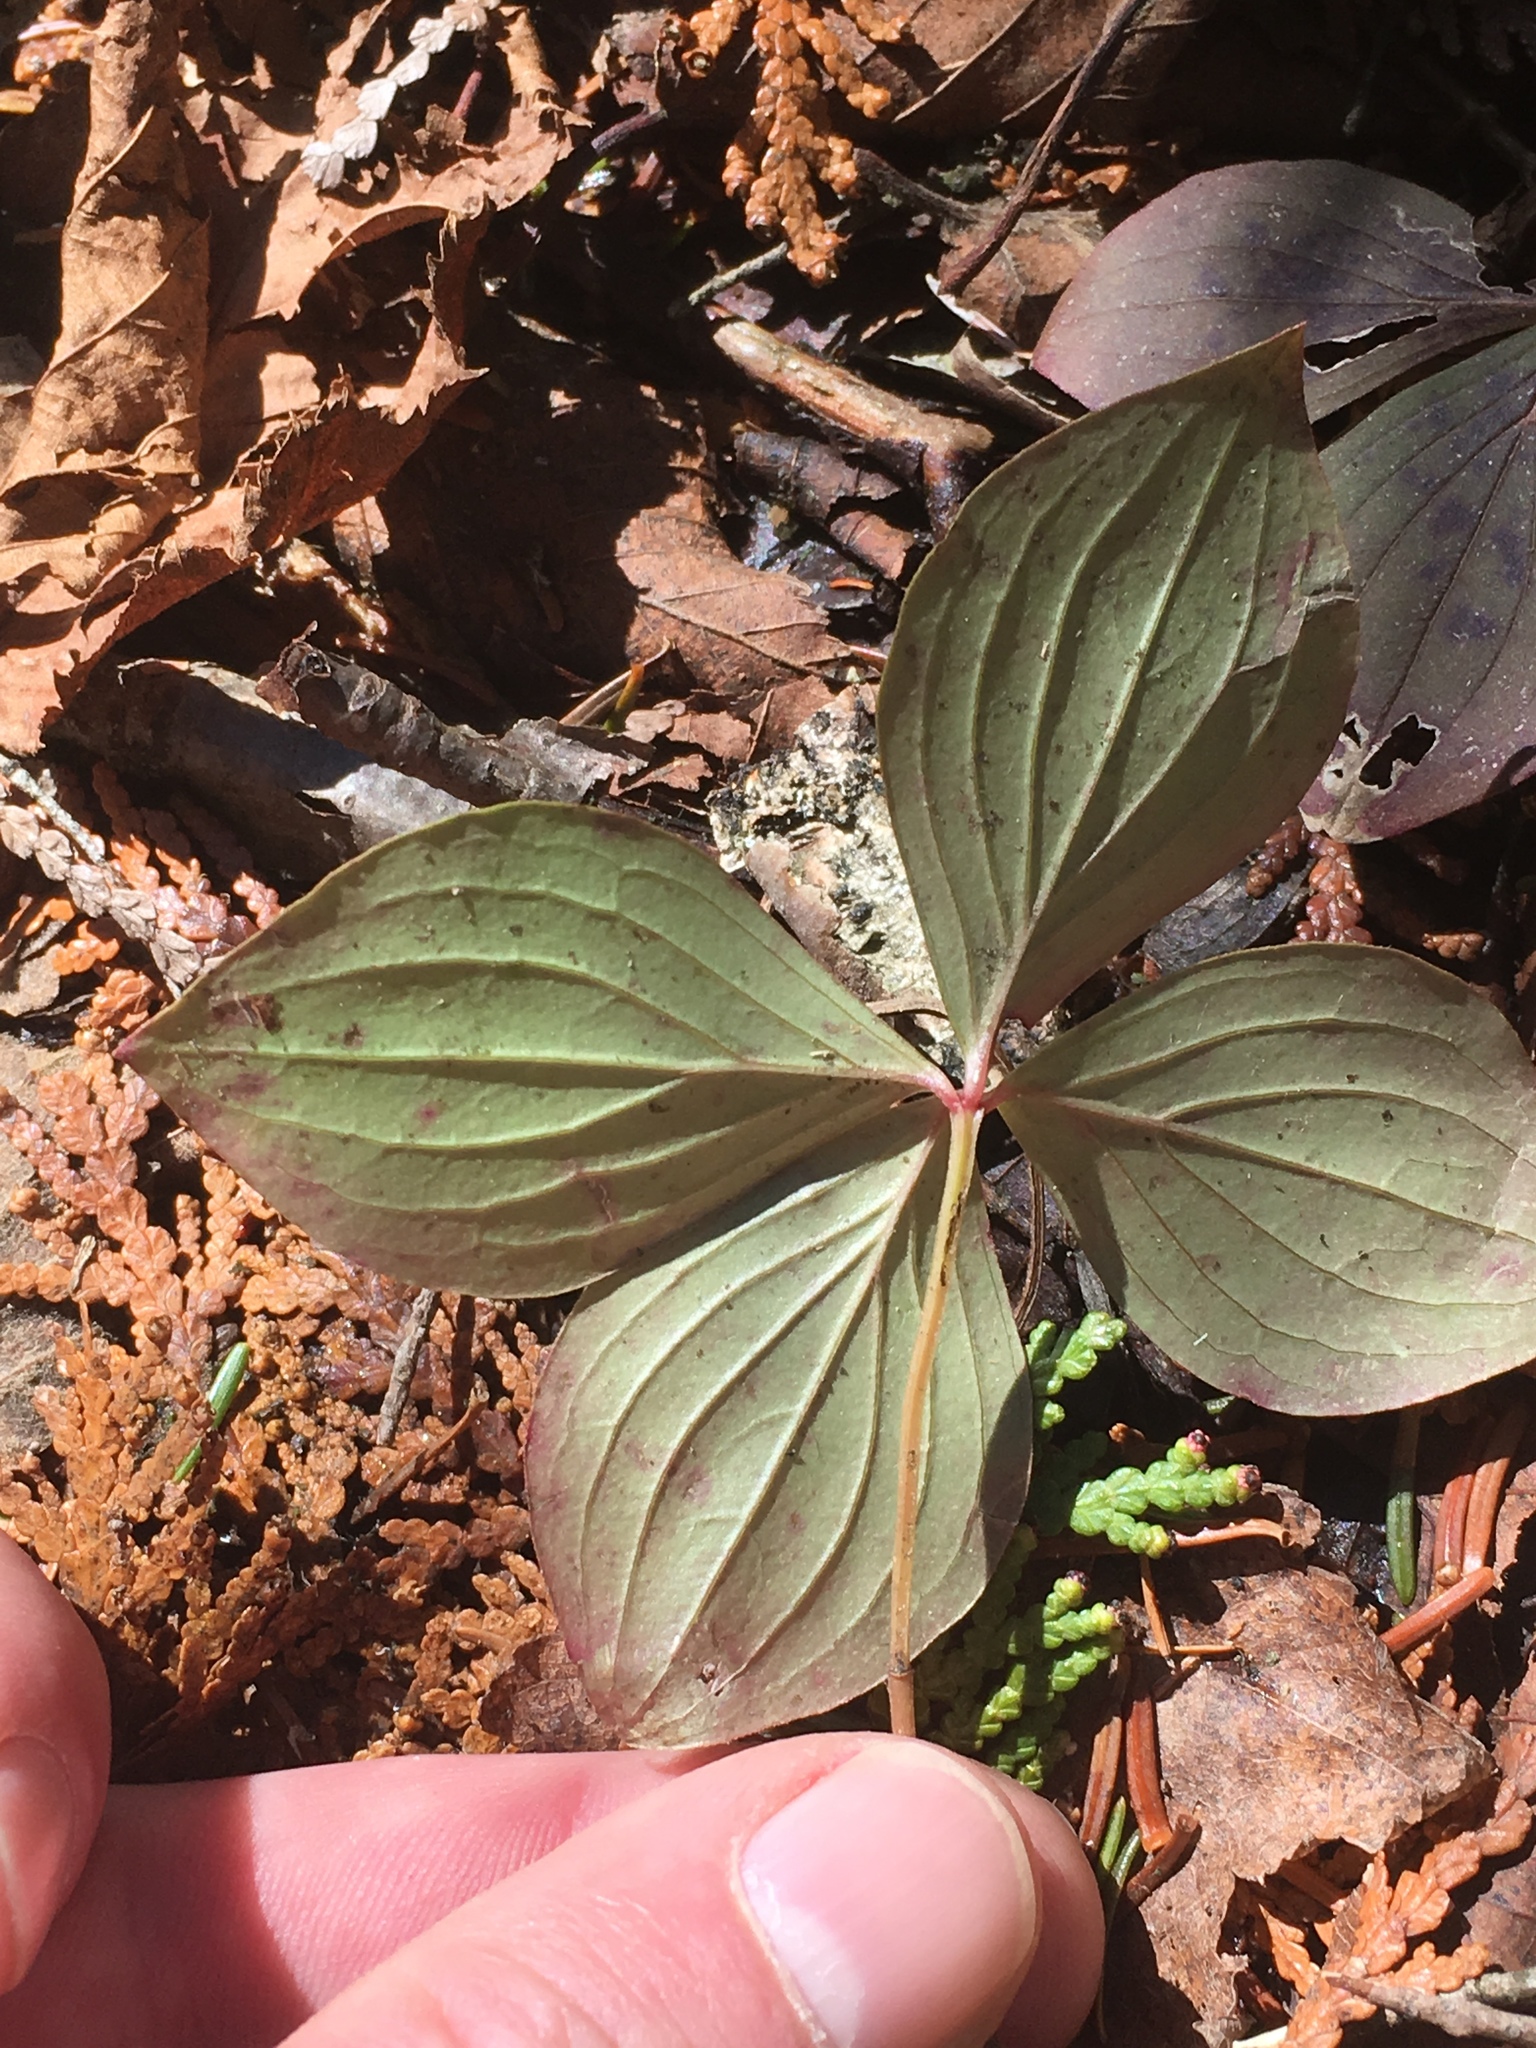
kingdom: Plantae
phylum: Tracheophyta
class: Magnoliopsida
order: Cornales
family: Cornaceae
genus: Cornus
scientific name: Cornus canadensis
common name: Creeping dogwood
